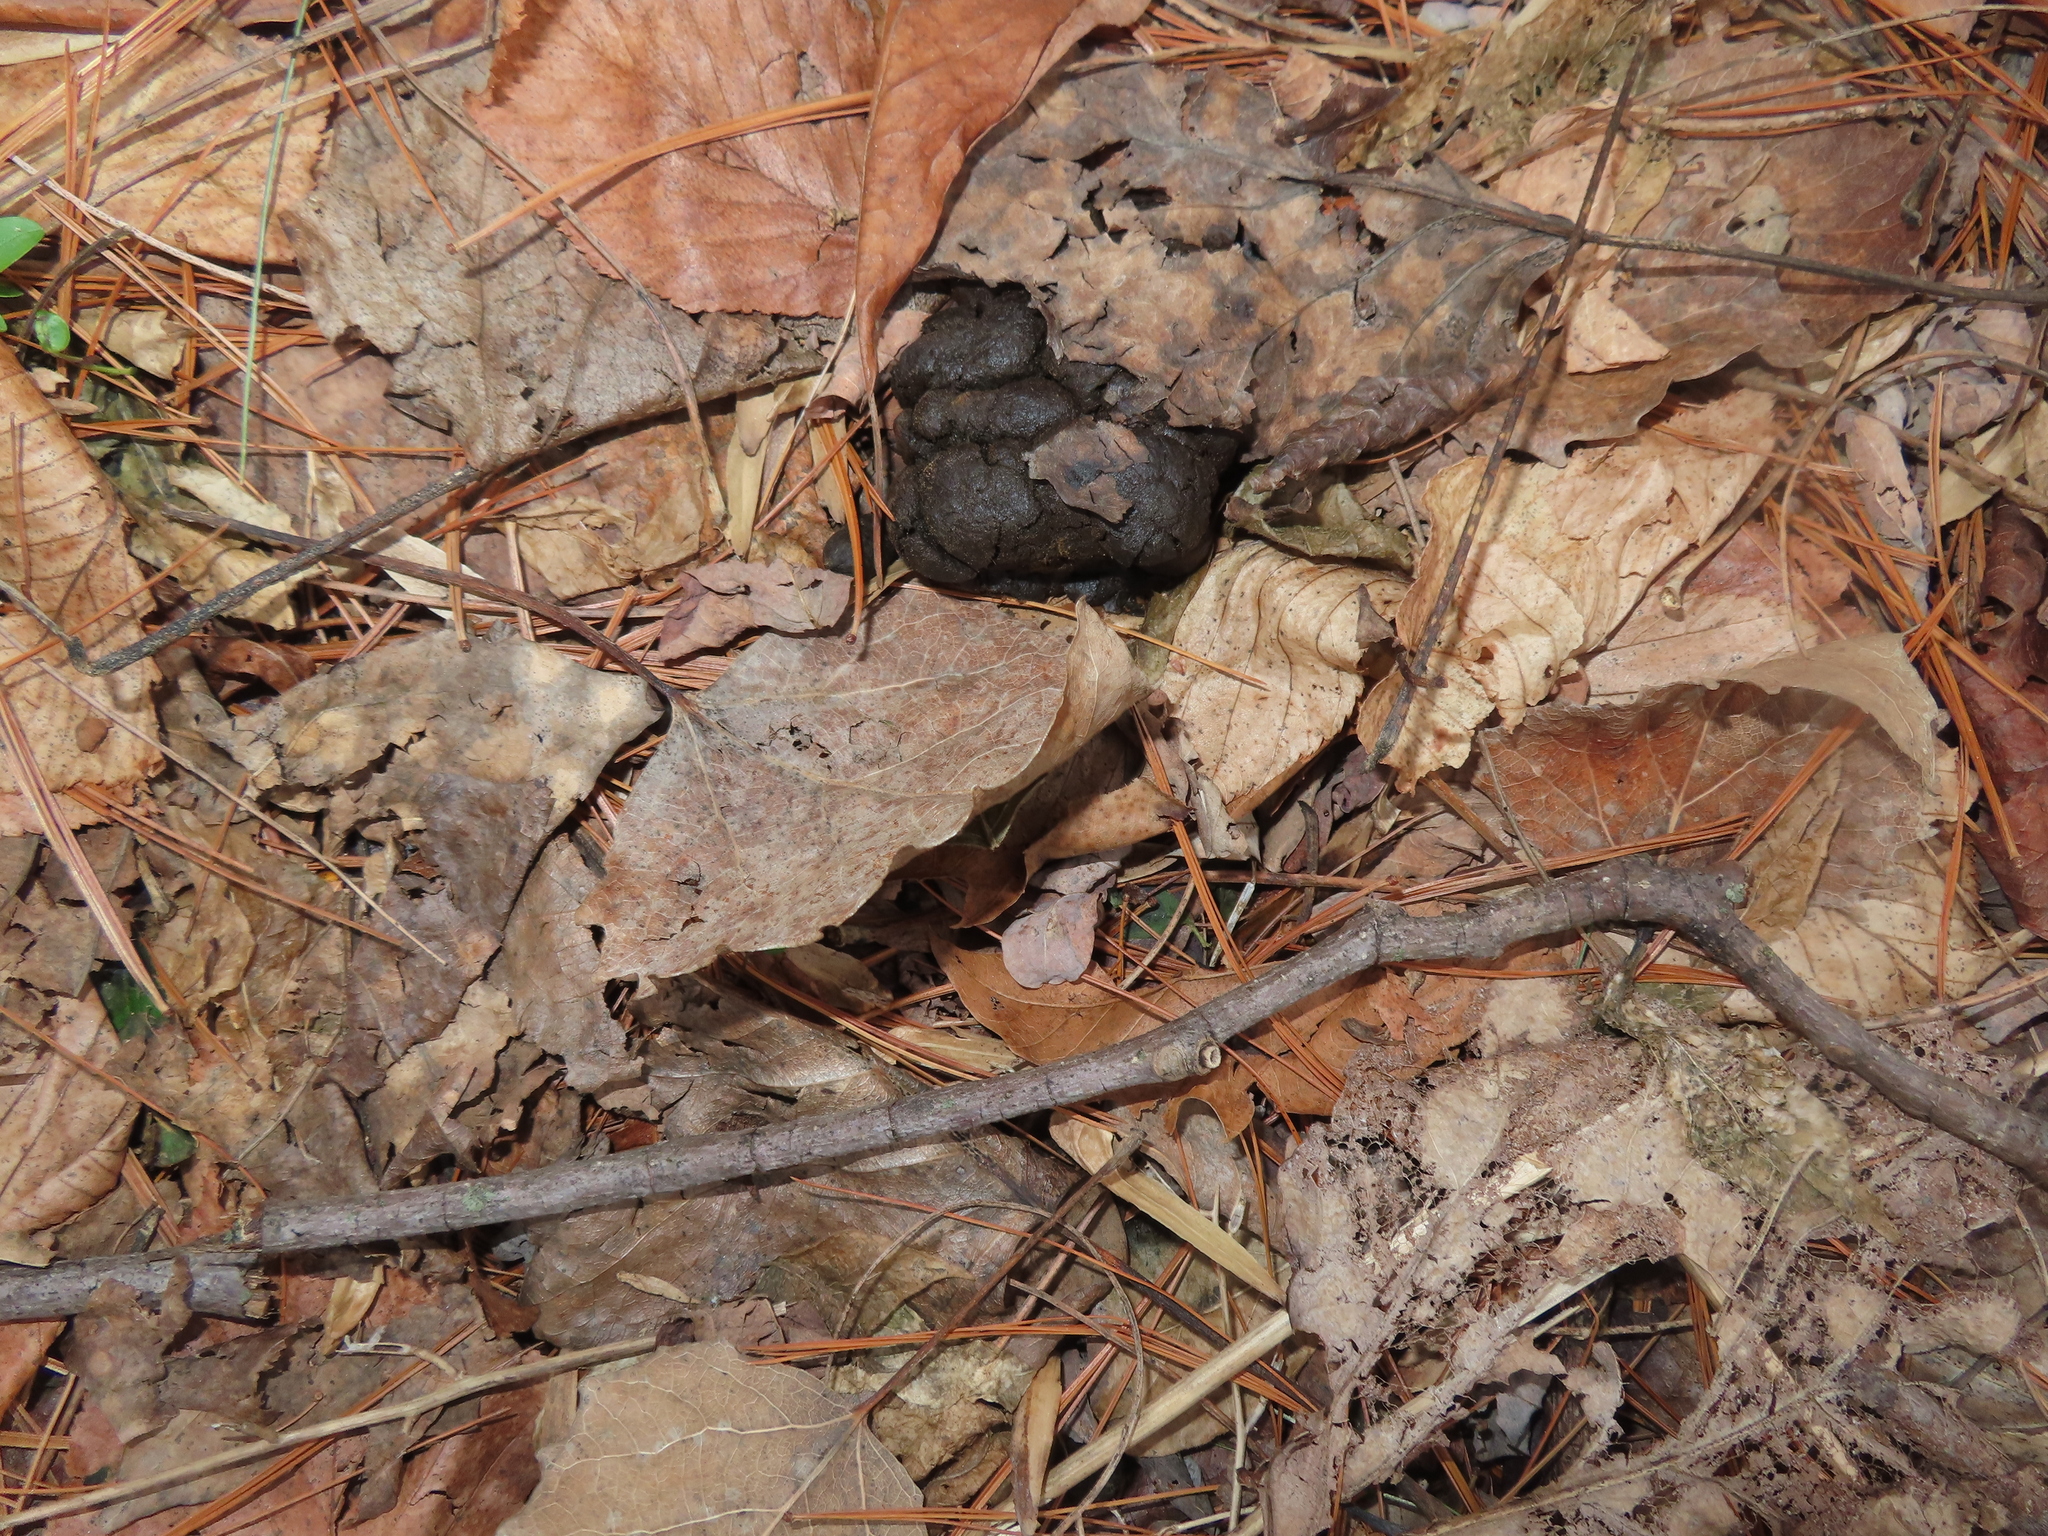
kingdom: Animalia
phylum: Chordata
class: Mammalia
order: Artiodactyla
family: Cervidae
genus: Odocoileus
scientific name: Odocoileus virginianus
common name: White-tailed deer
